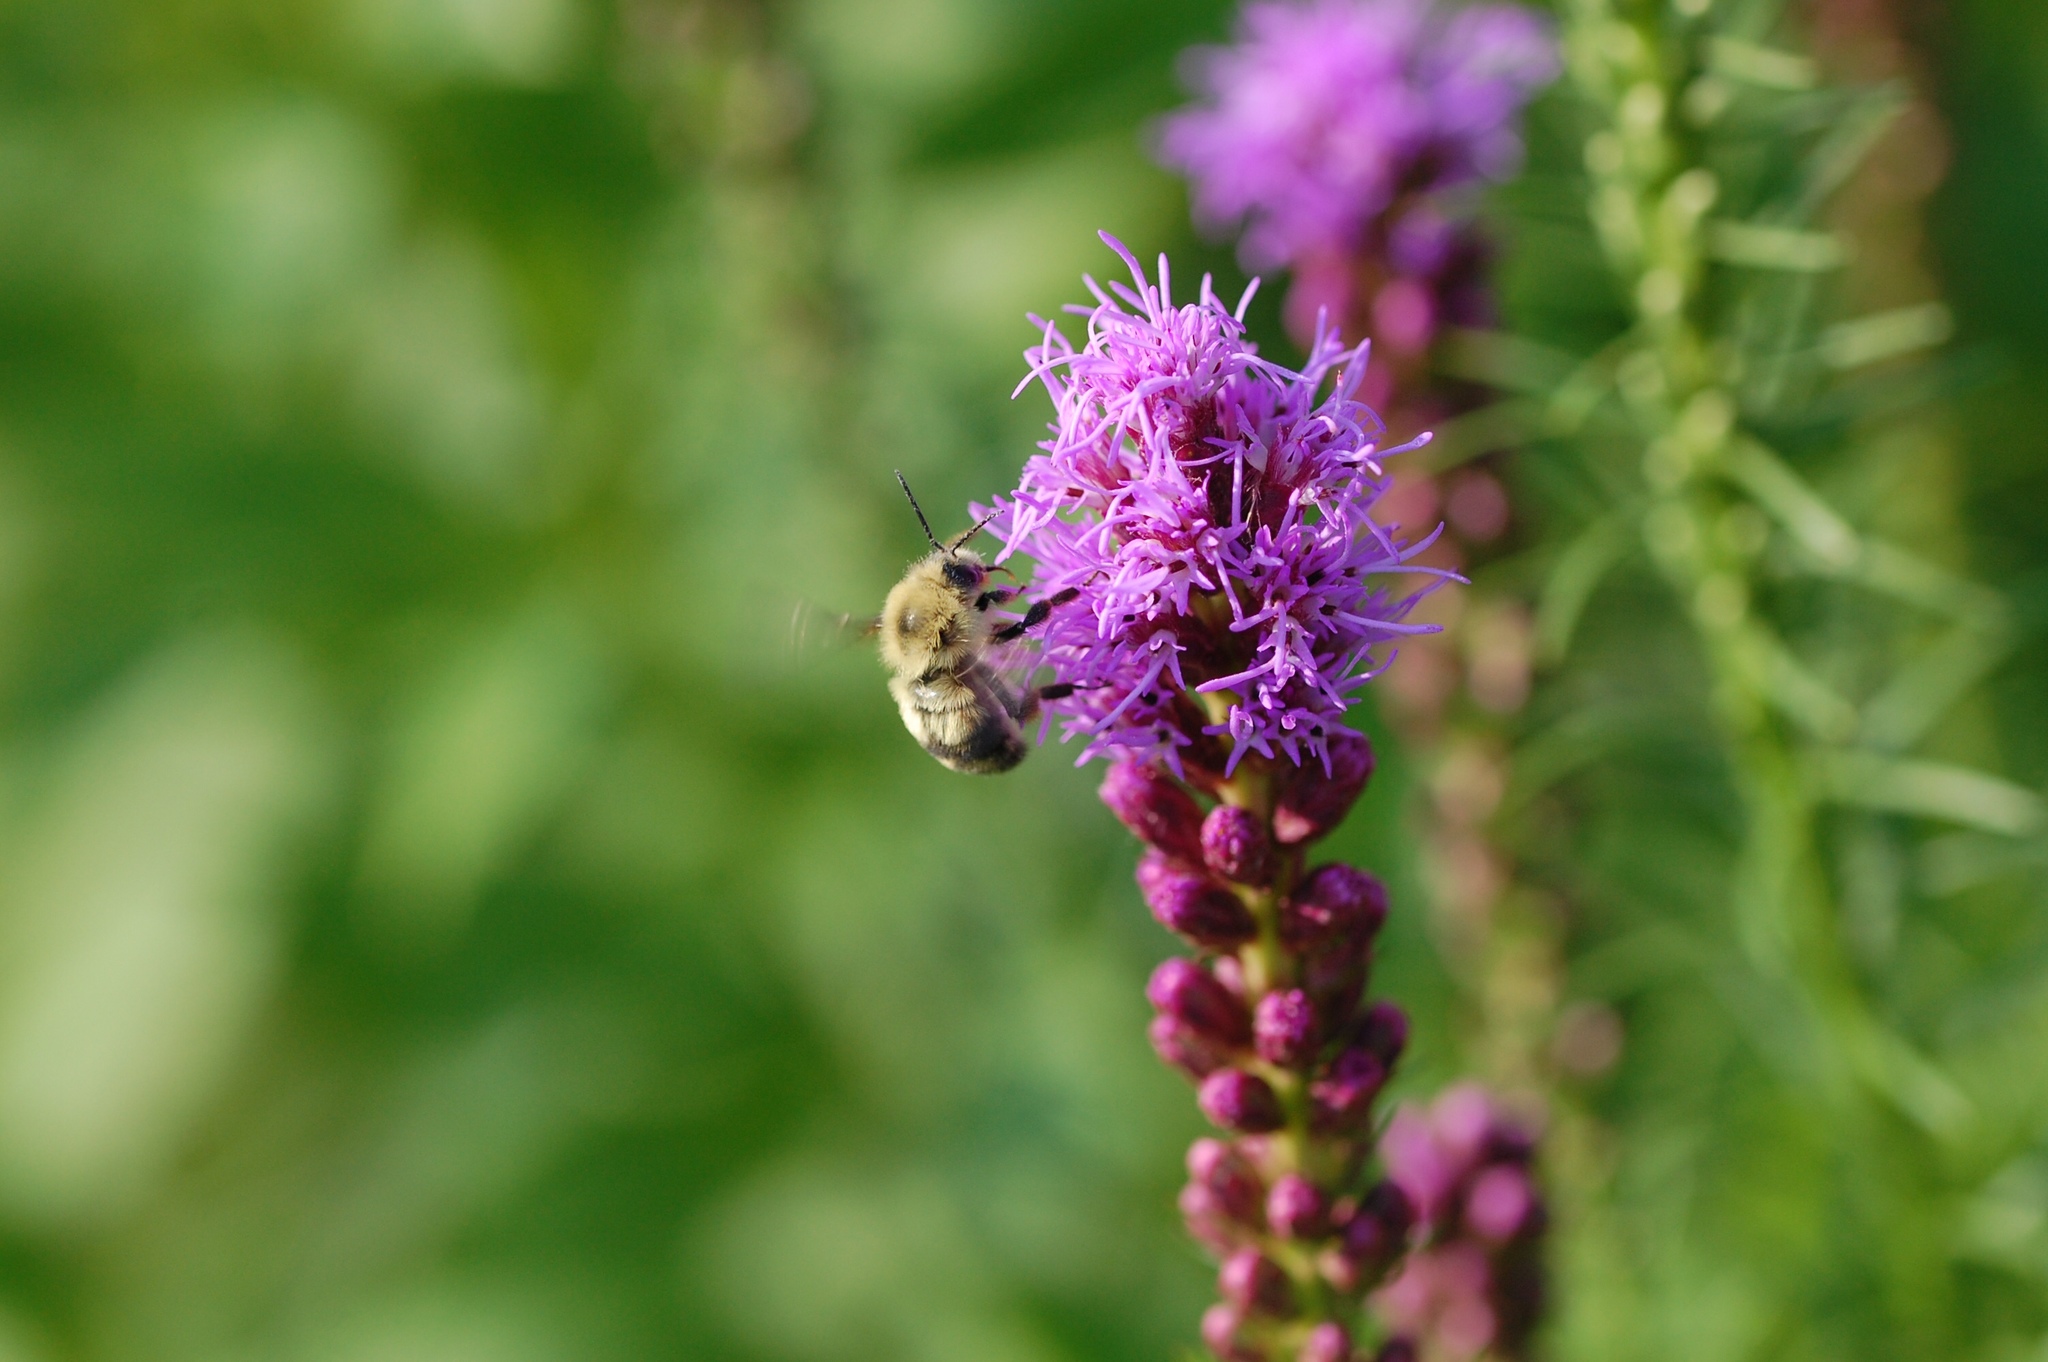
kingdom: Animalia
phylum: Arthropoda
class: Insecta
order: Hymenoptera
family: Apidae
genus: Bombus
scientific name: Bombus bimaculatus
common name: Two-spotted bumble bee
